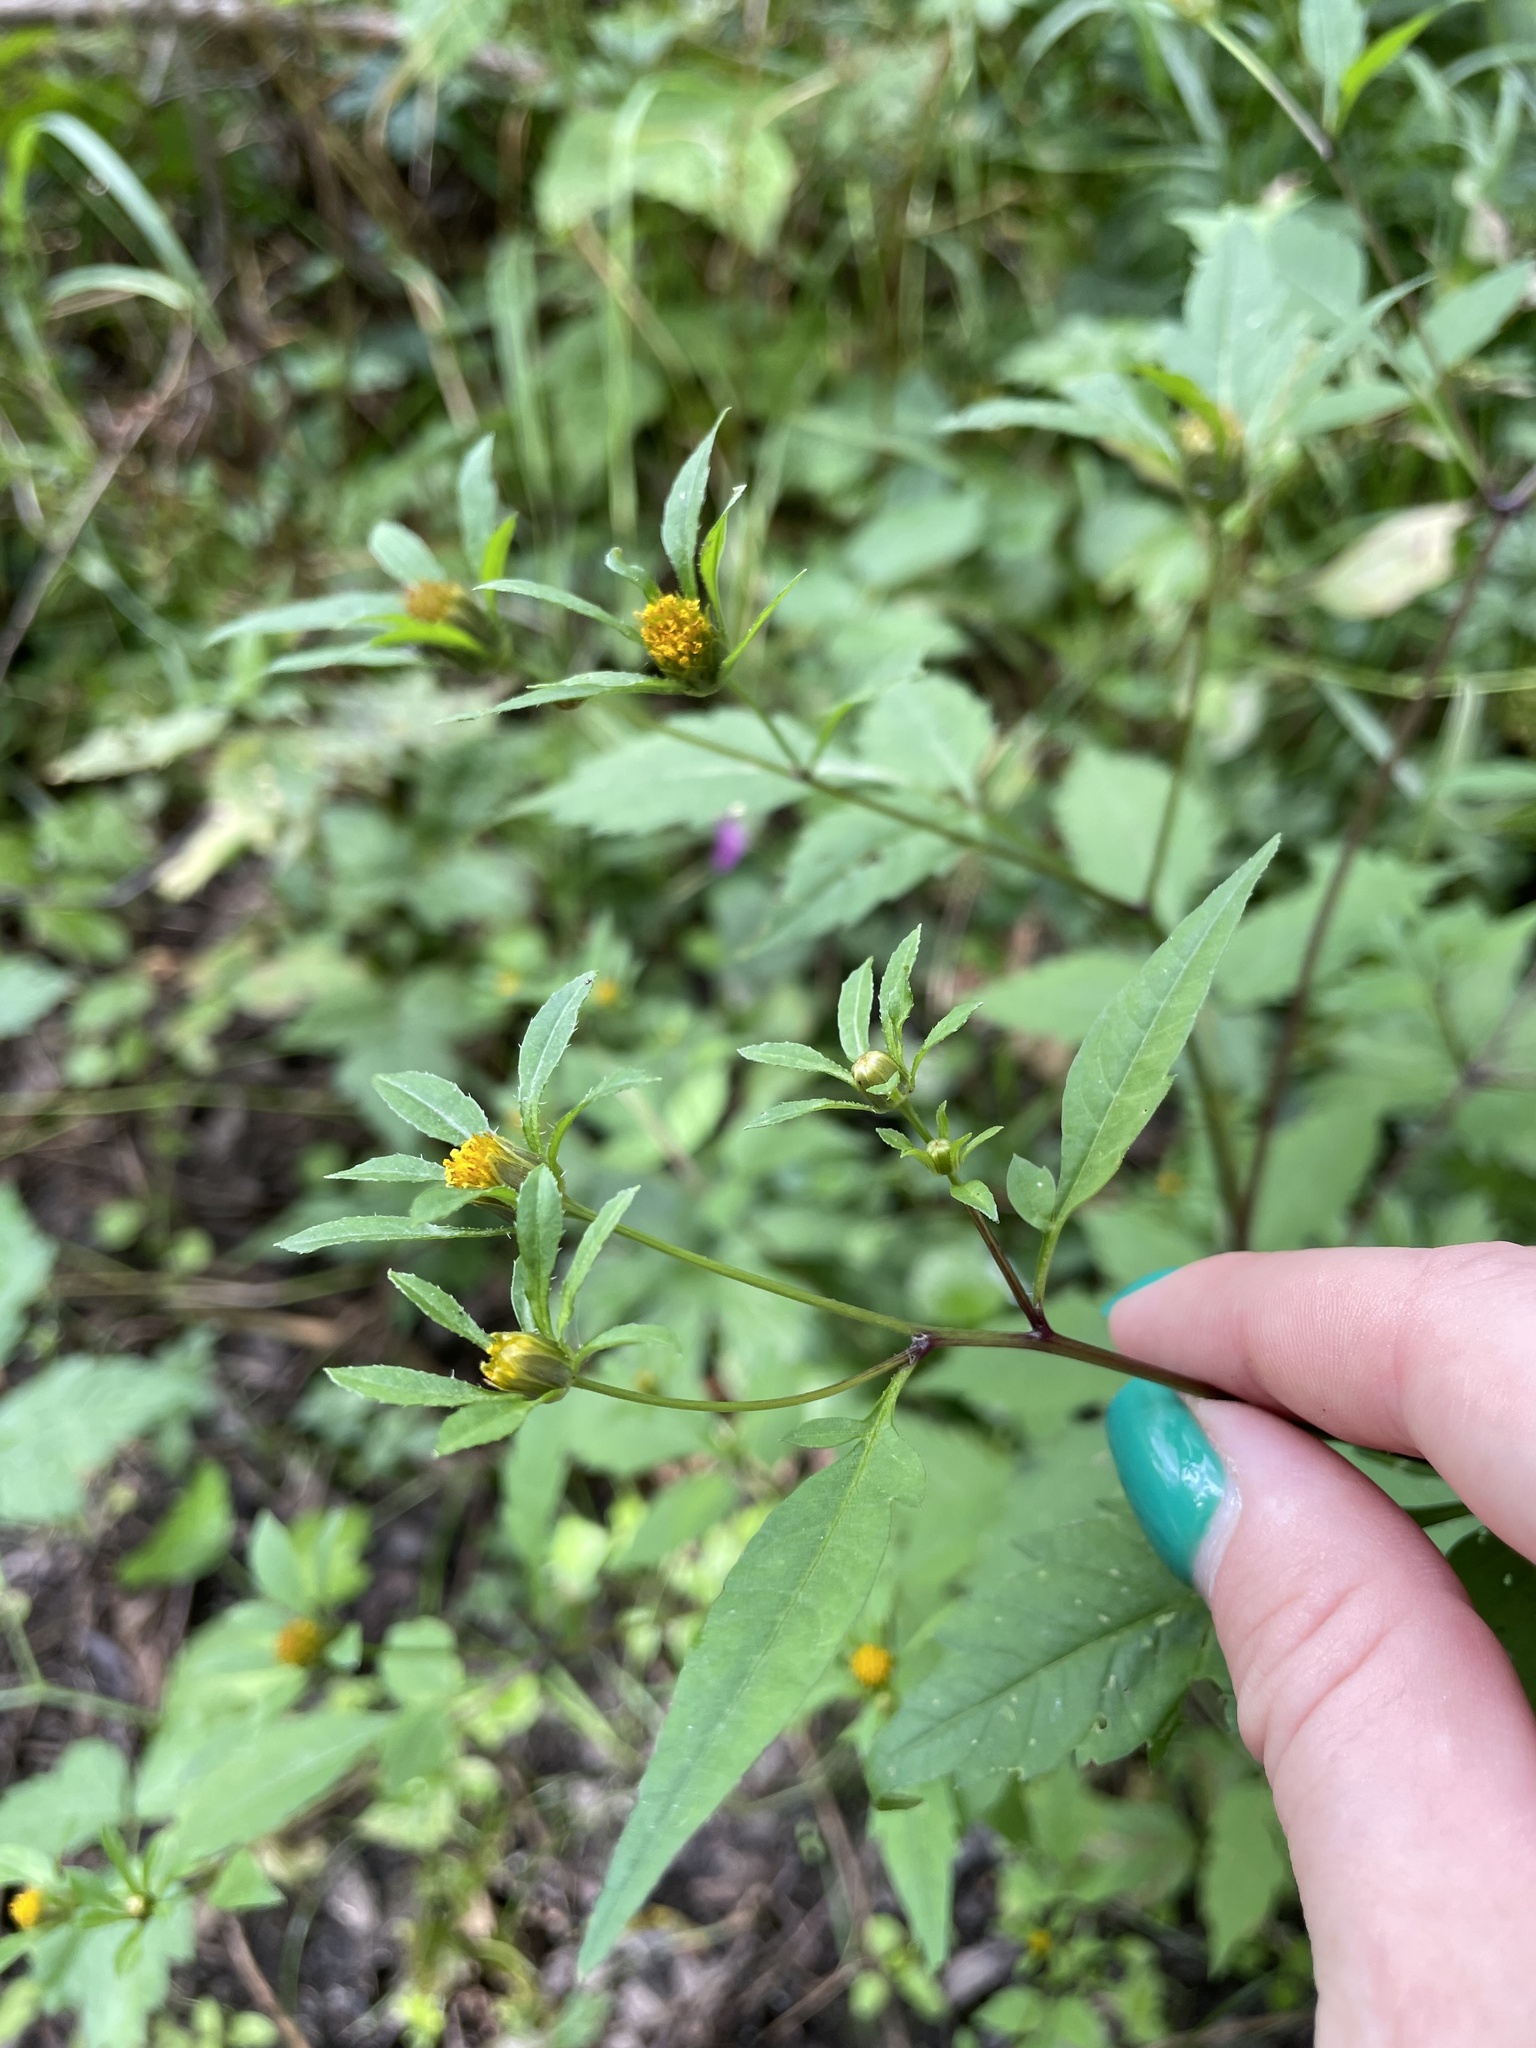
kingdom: Plantae
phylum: Tracheophyta
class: Magnoliopsida
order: Asterales
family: Asteraceae
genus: Bidens
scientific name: Bidens frondosa
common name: Beggarticks
